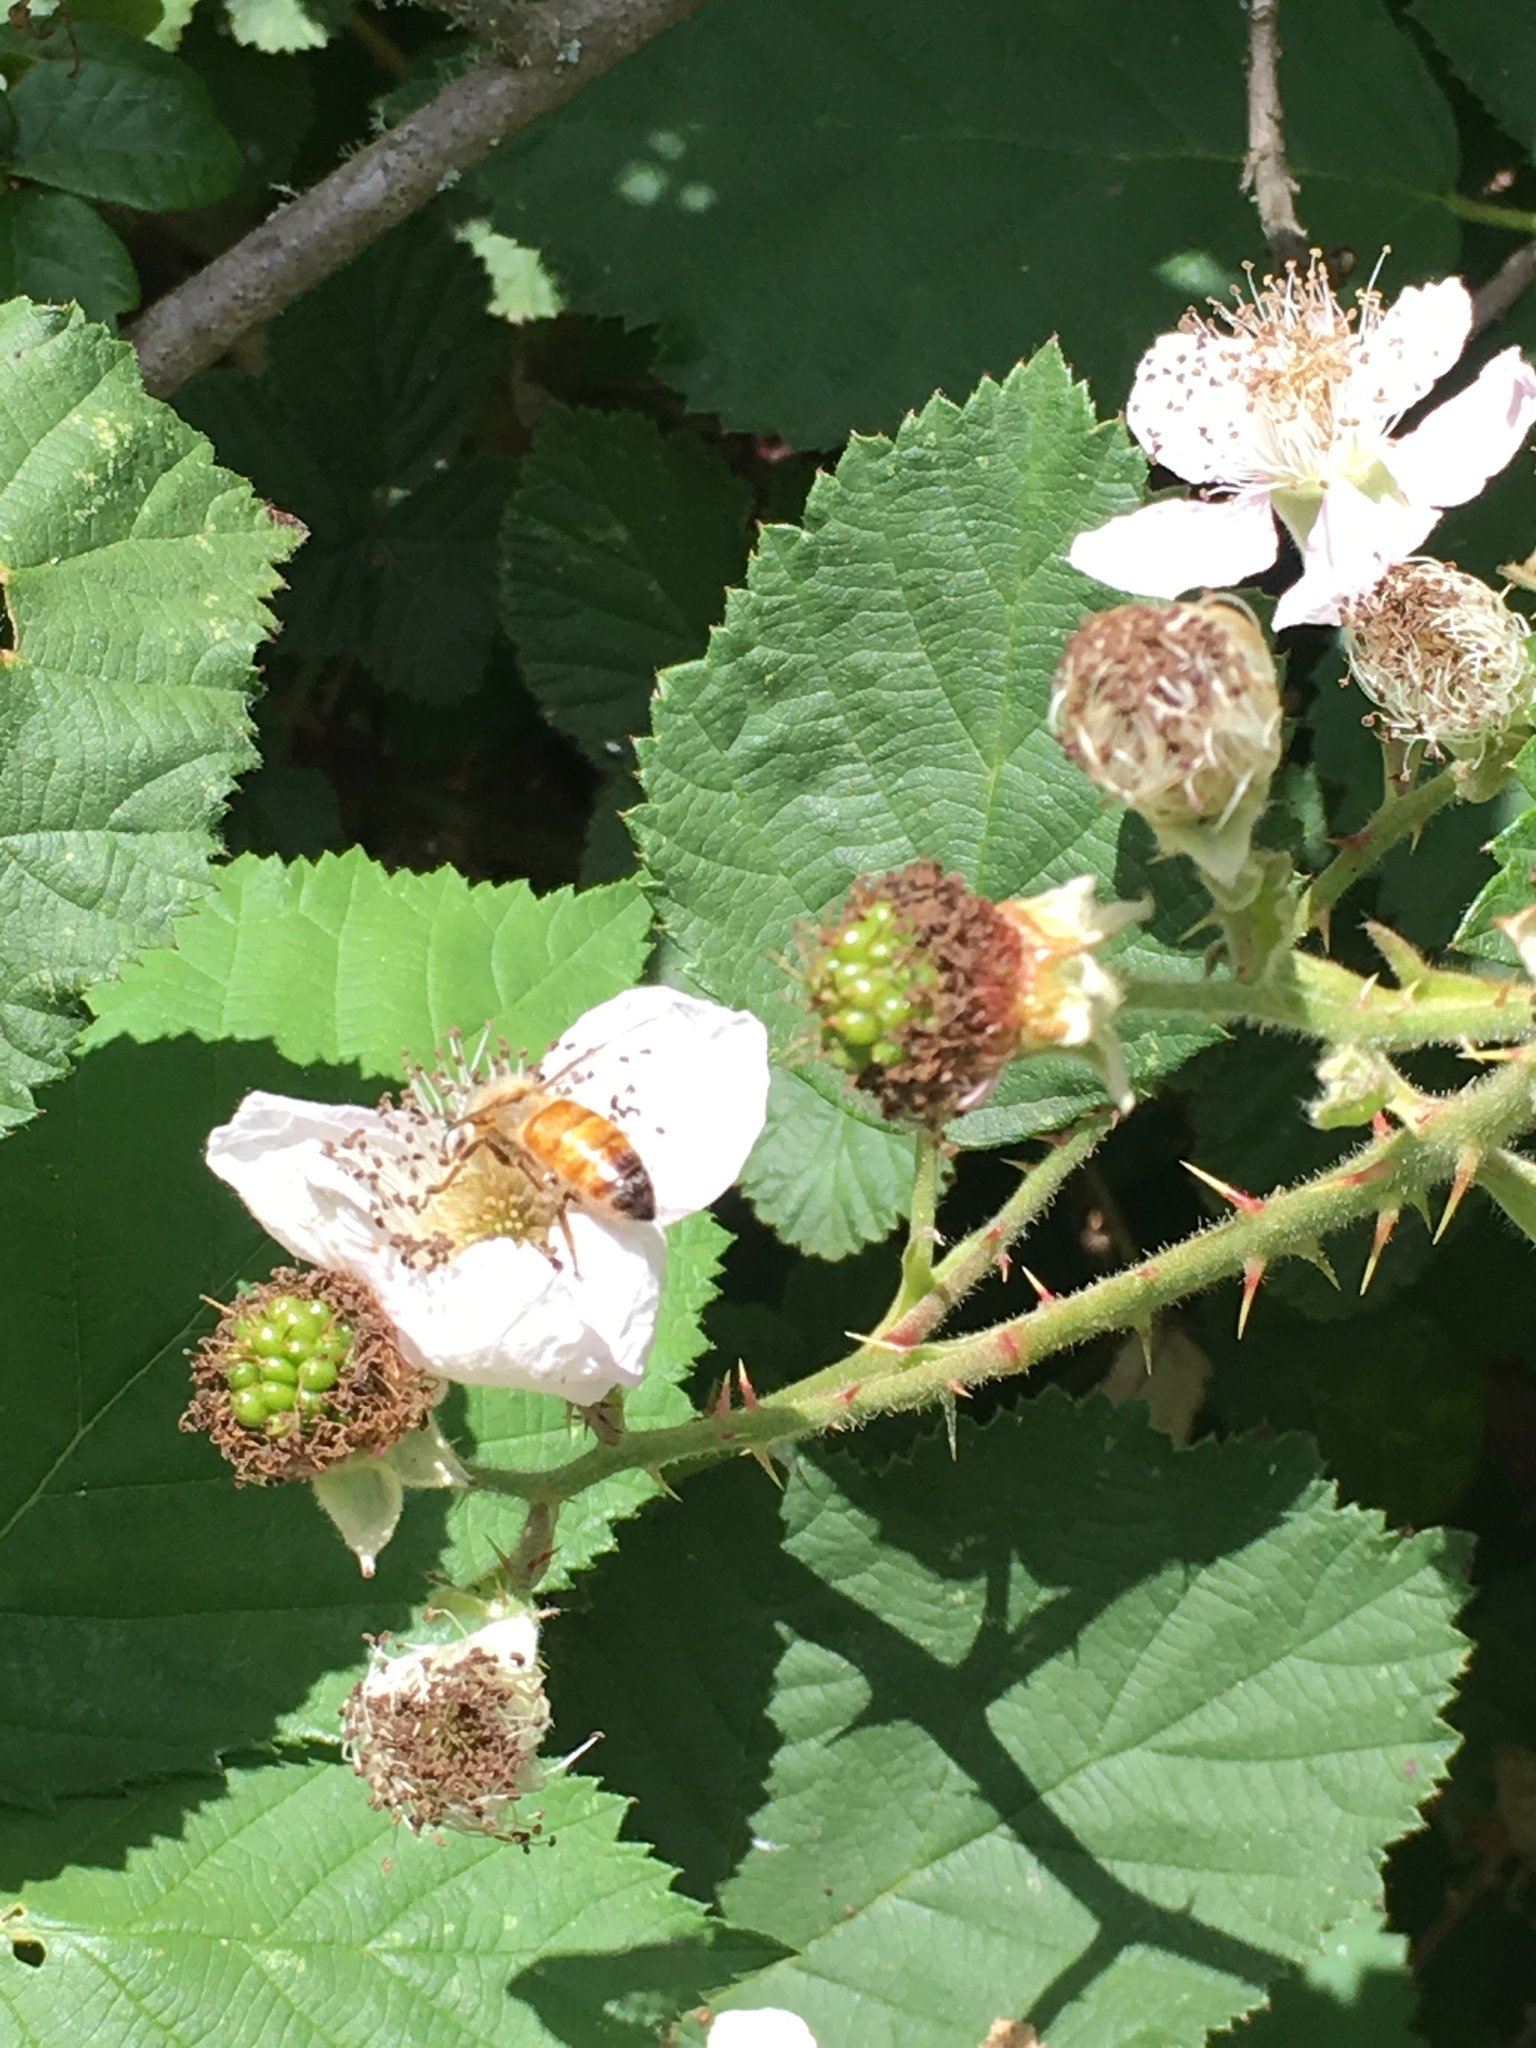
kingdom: Animalia
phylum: Arthropoda
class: Insecta
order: Hymenoptera
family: Apidae
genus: Apis
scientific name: Apis mellifera
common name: Honey bee
